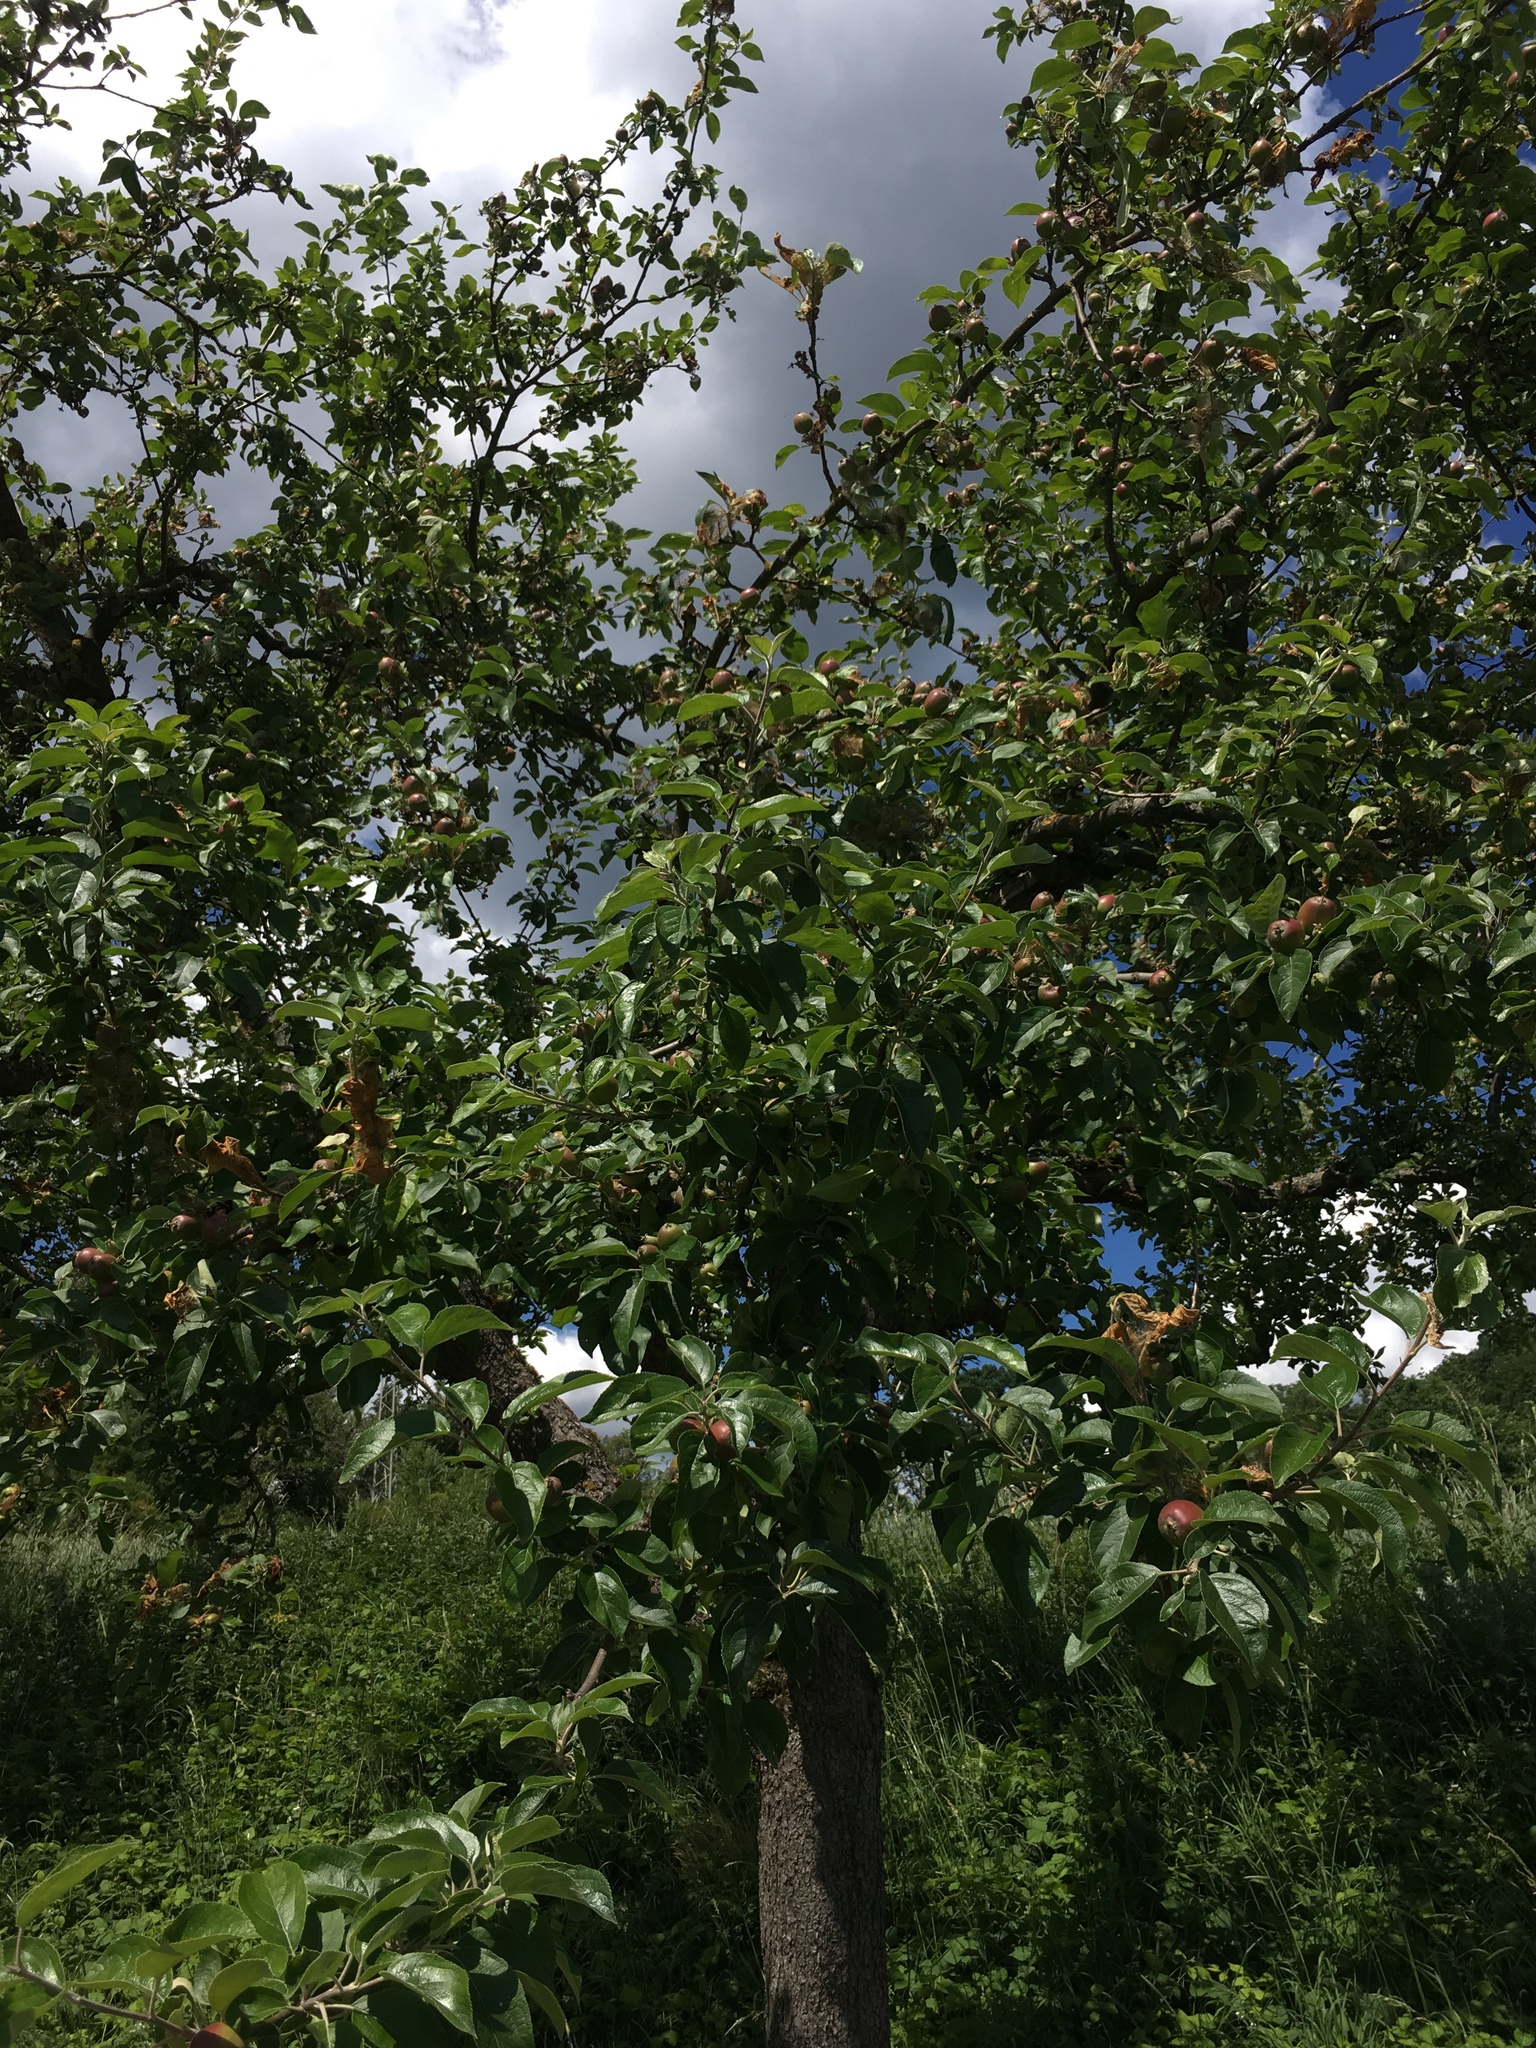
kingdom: Plantae
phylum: Tracheophyta
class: Magnoliopsida
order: Rosales
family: Rosaceae
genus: Malus
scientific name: Malus domestica
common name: Apple
